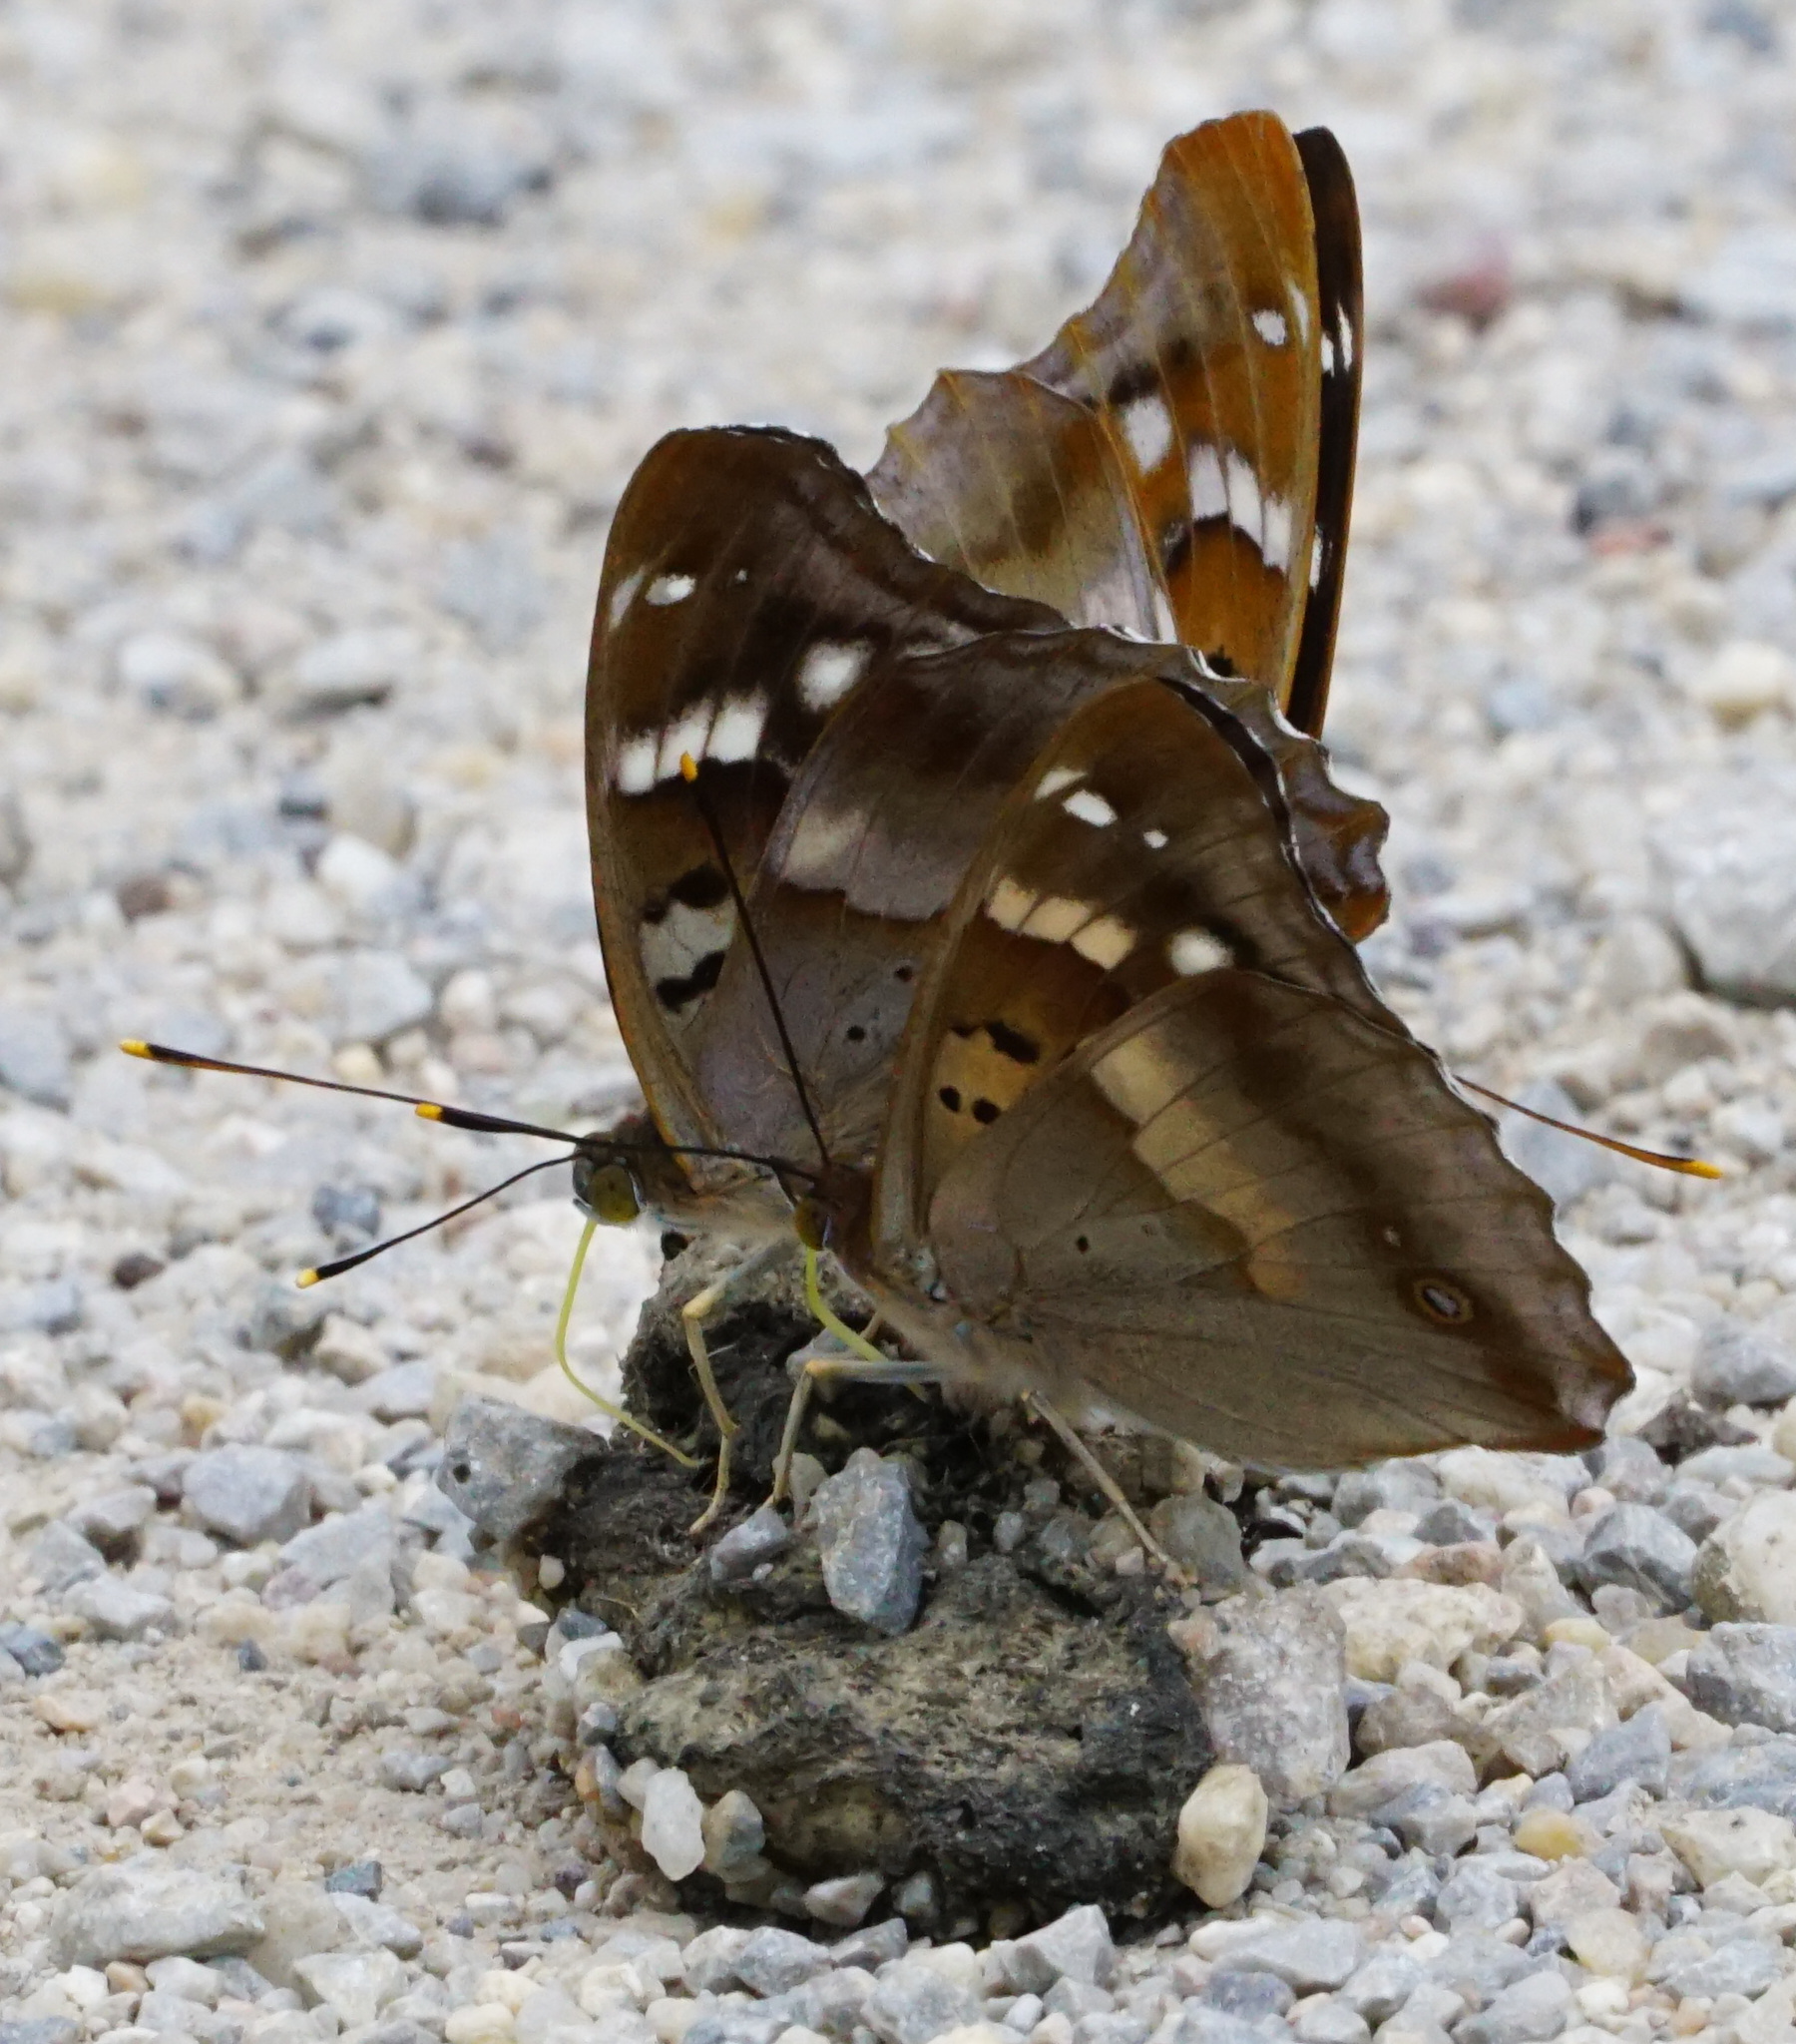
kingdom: Animalia
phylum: Arthropoda
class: Insecta
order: Lepidoptera
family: Nymphalidae
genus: Apatura
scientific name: Apatura ilia
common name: Lesser purple emperor
